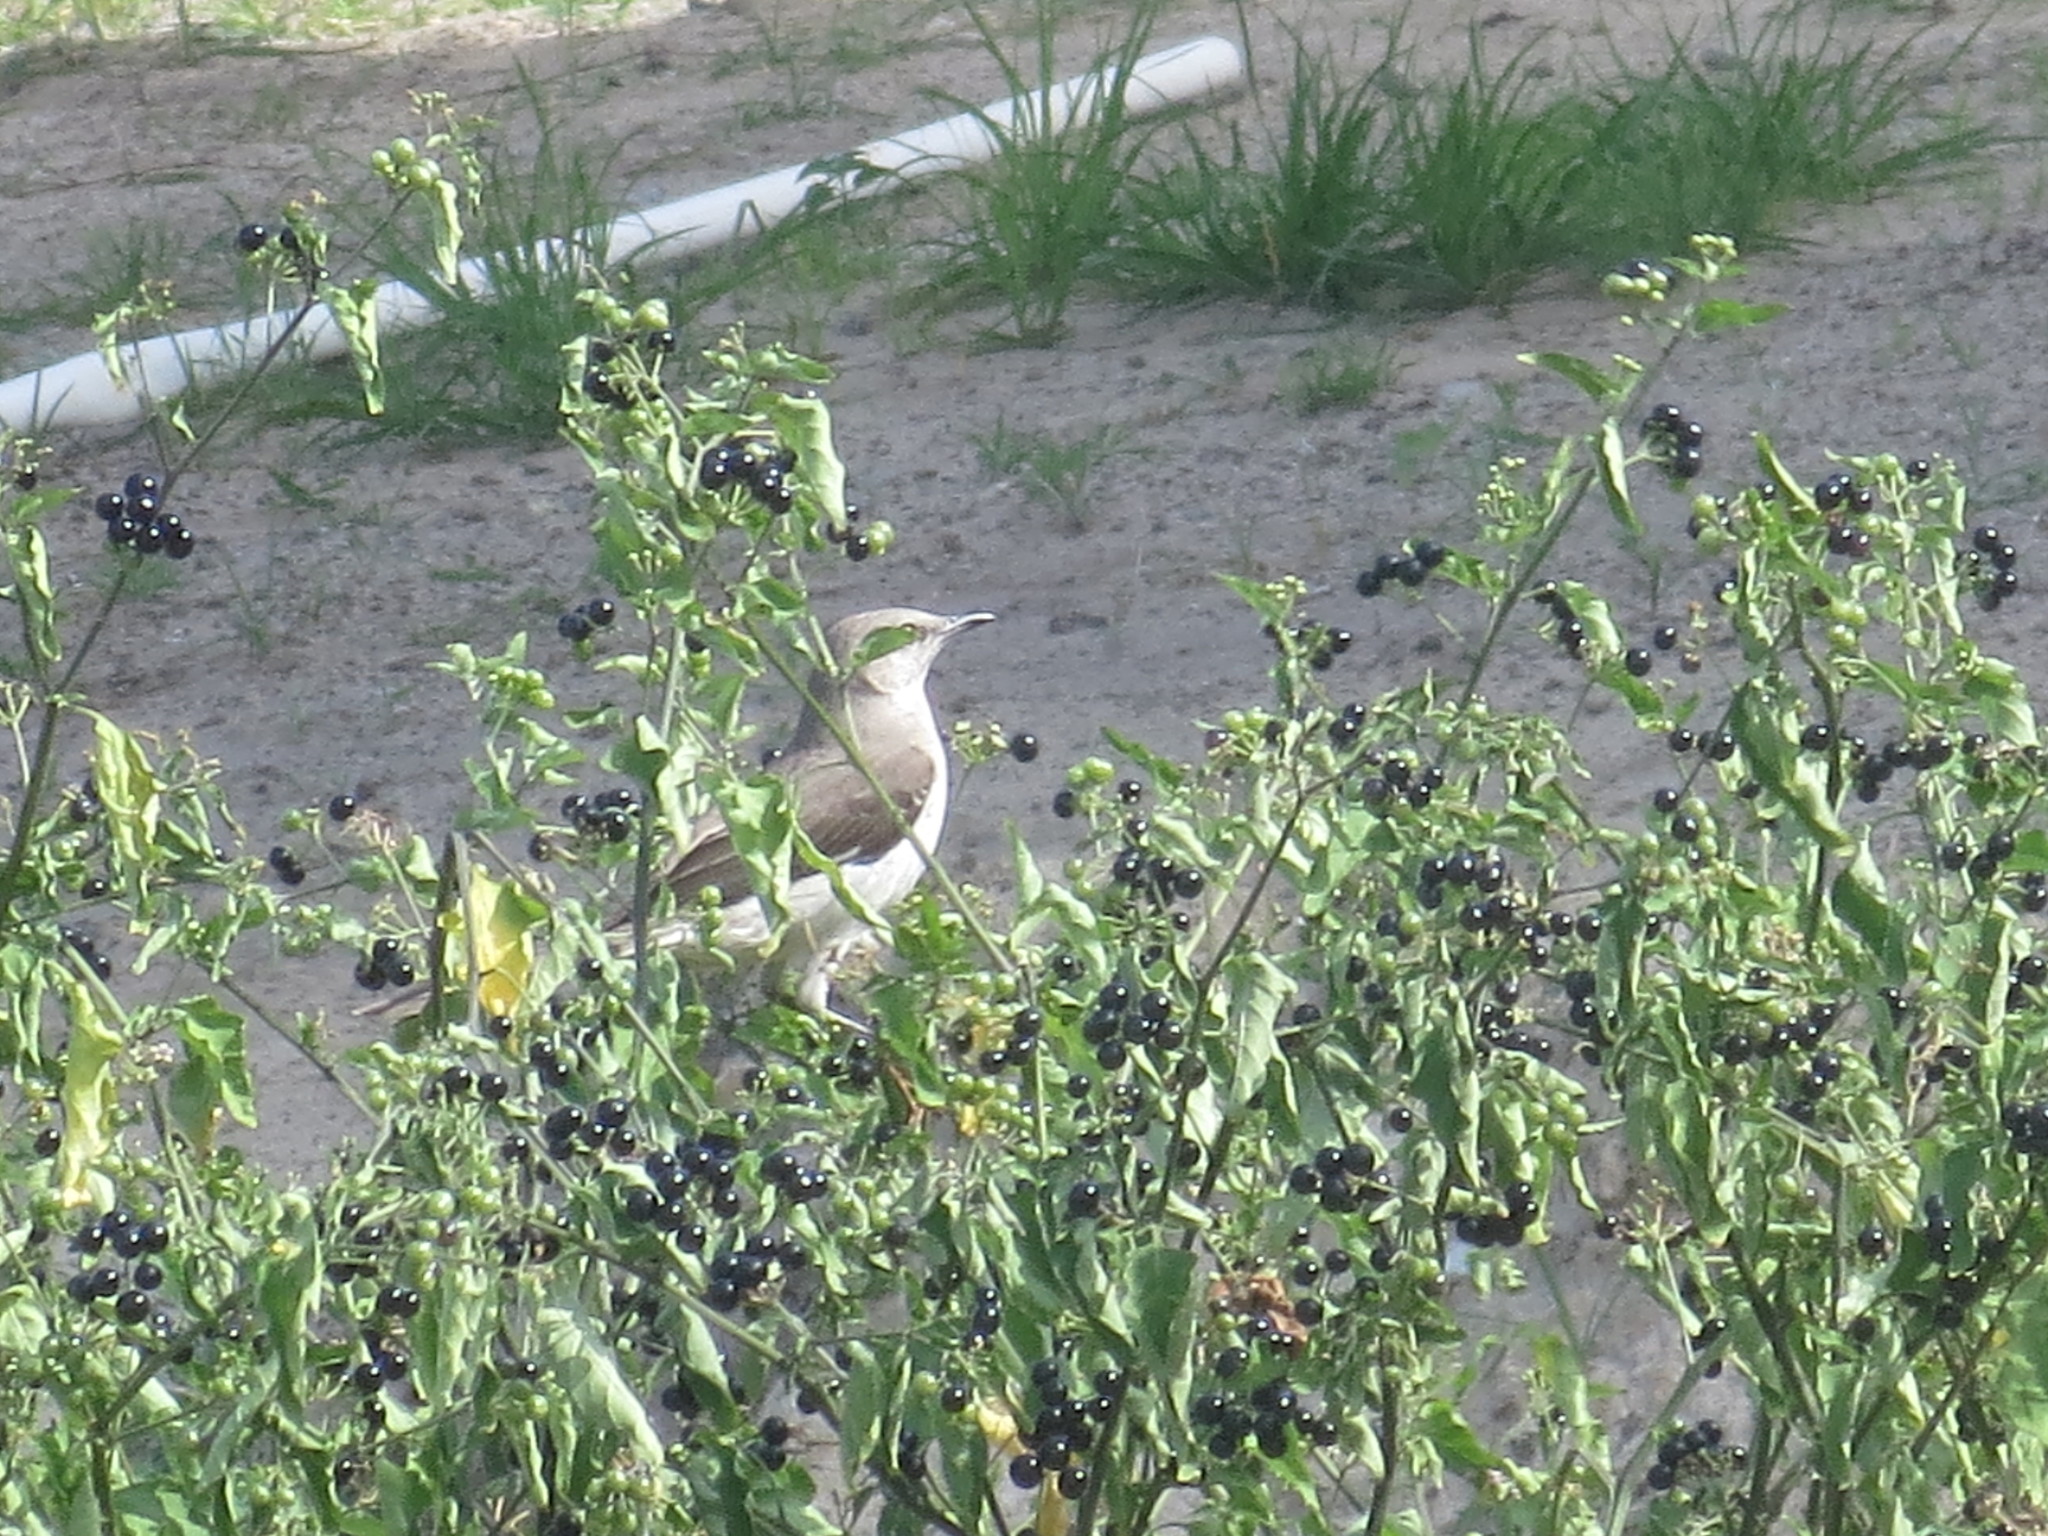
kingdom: Animalia
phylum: Chordata
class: Aves
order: Passeriformes
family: Mimidae
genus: Mimus
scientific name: Mimus polyglottos
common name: Northern mockingbird
